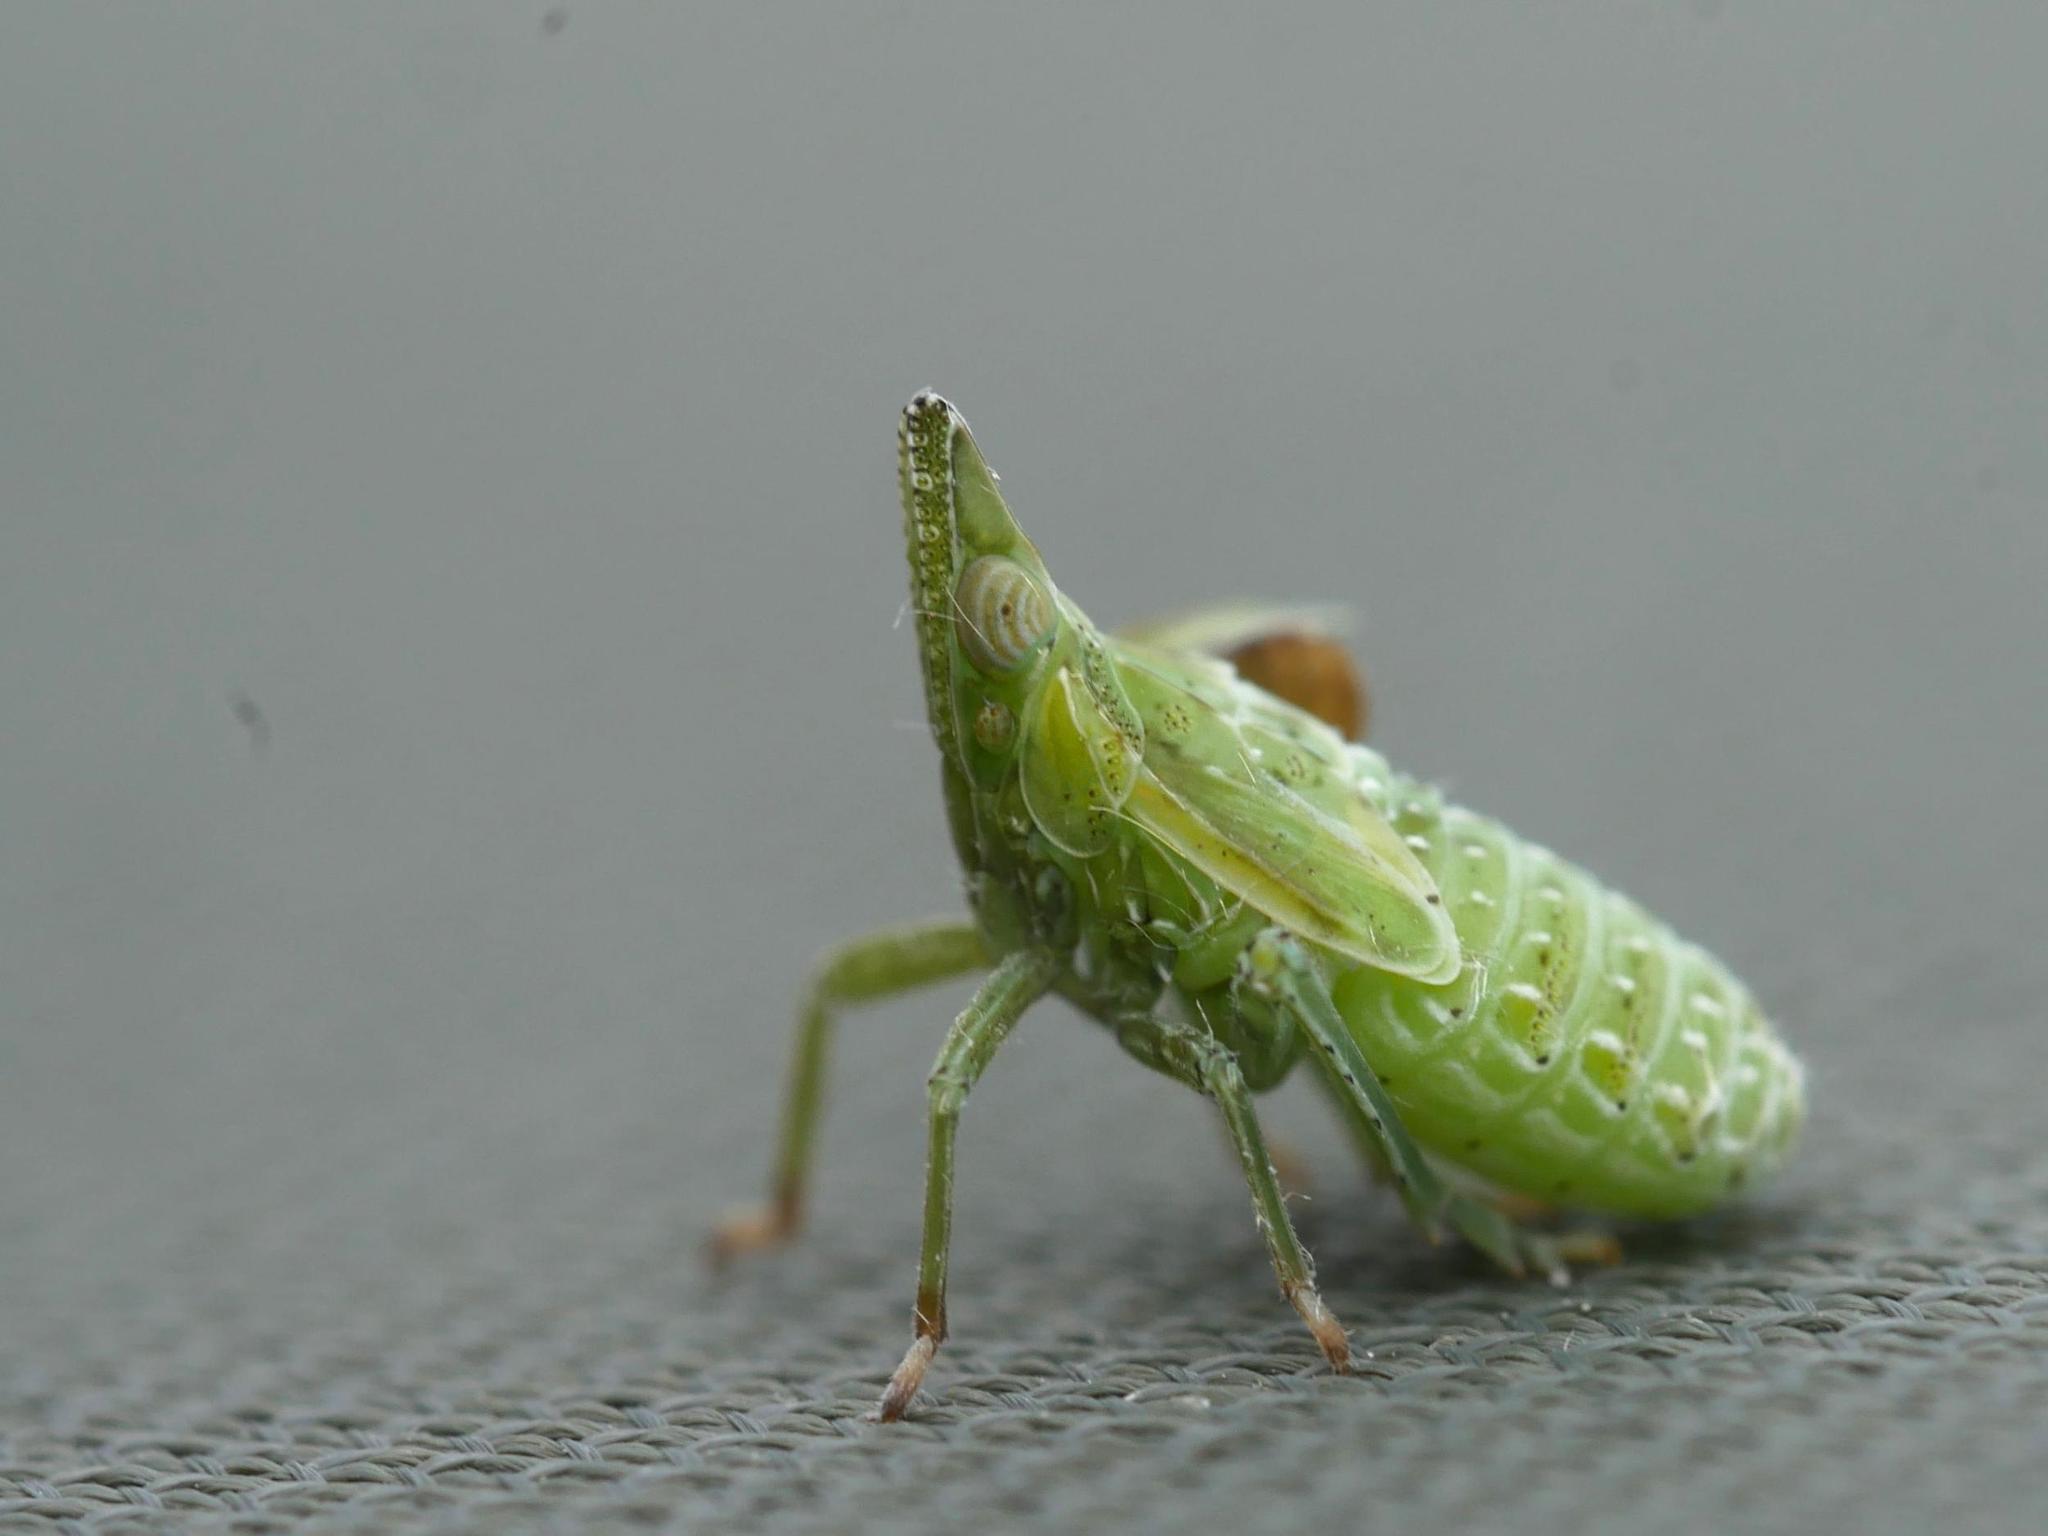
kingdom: Animalia
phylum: Arthropoda
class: Insecta
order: Hemiptera
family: Dictyopharidae
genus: Dictyophara
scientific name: Dictyophara europaea
